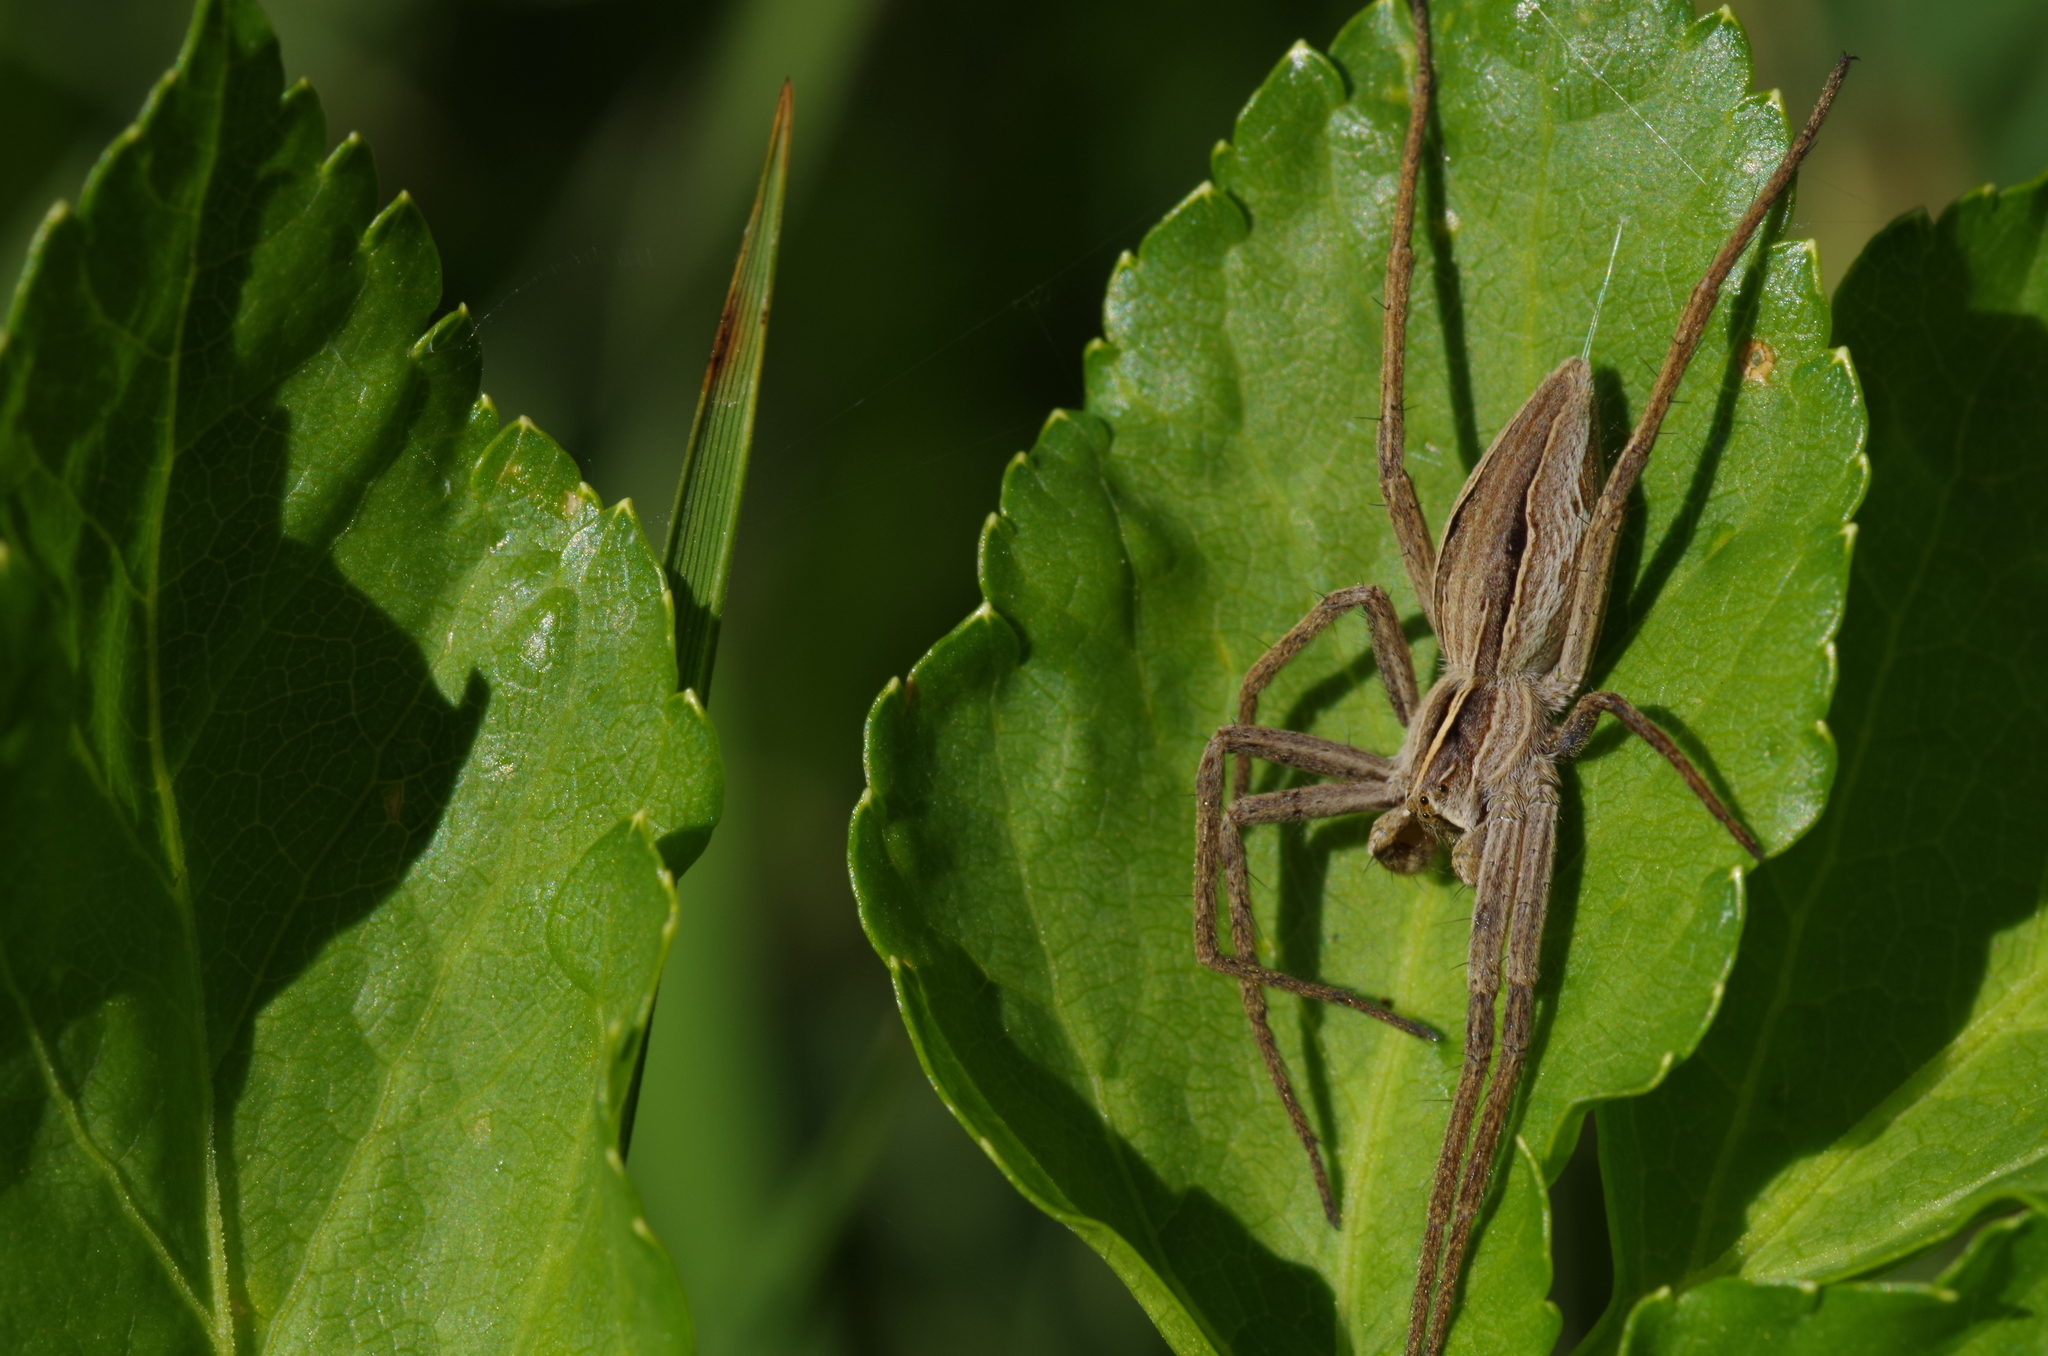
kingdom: Animalia
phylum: Arthropoda
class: Arachnida
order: Araneae
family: Pisauridae
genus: Pisaura
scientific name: Pisaura mirabilis
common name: Tent spider
